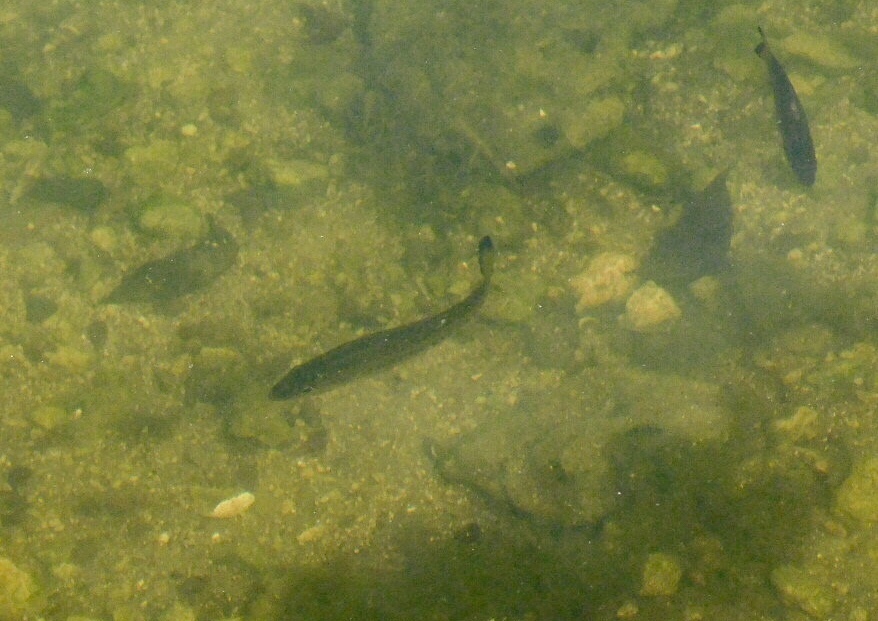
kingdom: Animalia
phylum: Chordata
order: Perciformes
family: Centrarchidae
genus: Micropterus
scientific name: Micropterus salmoides
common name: Largemouth bass
